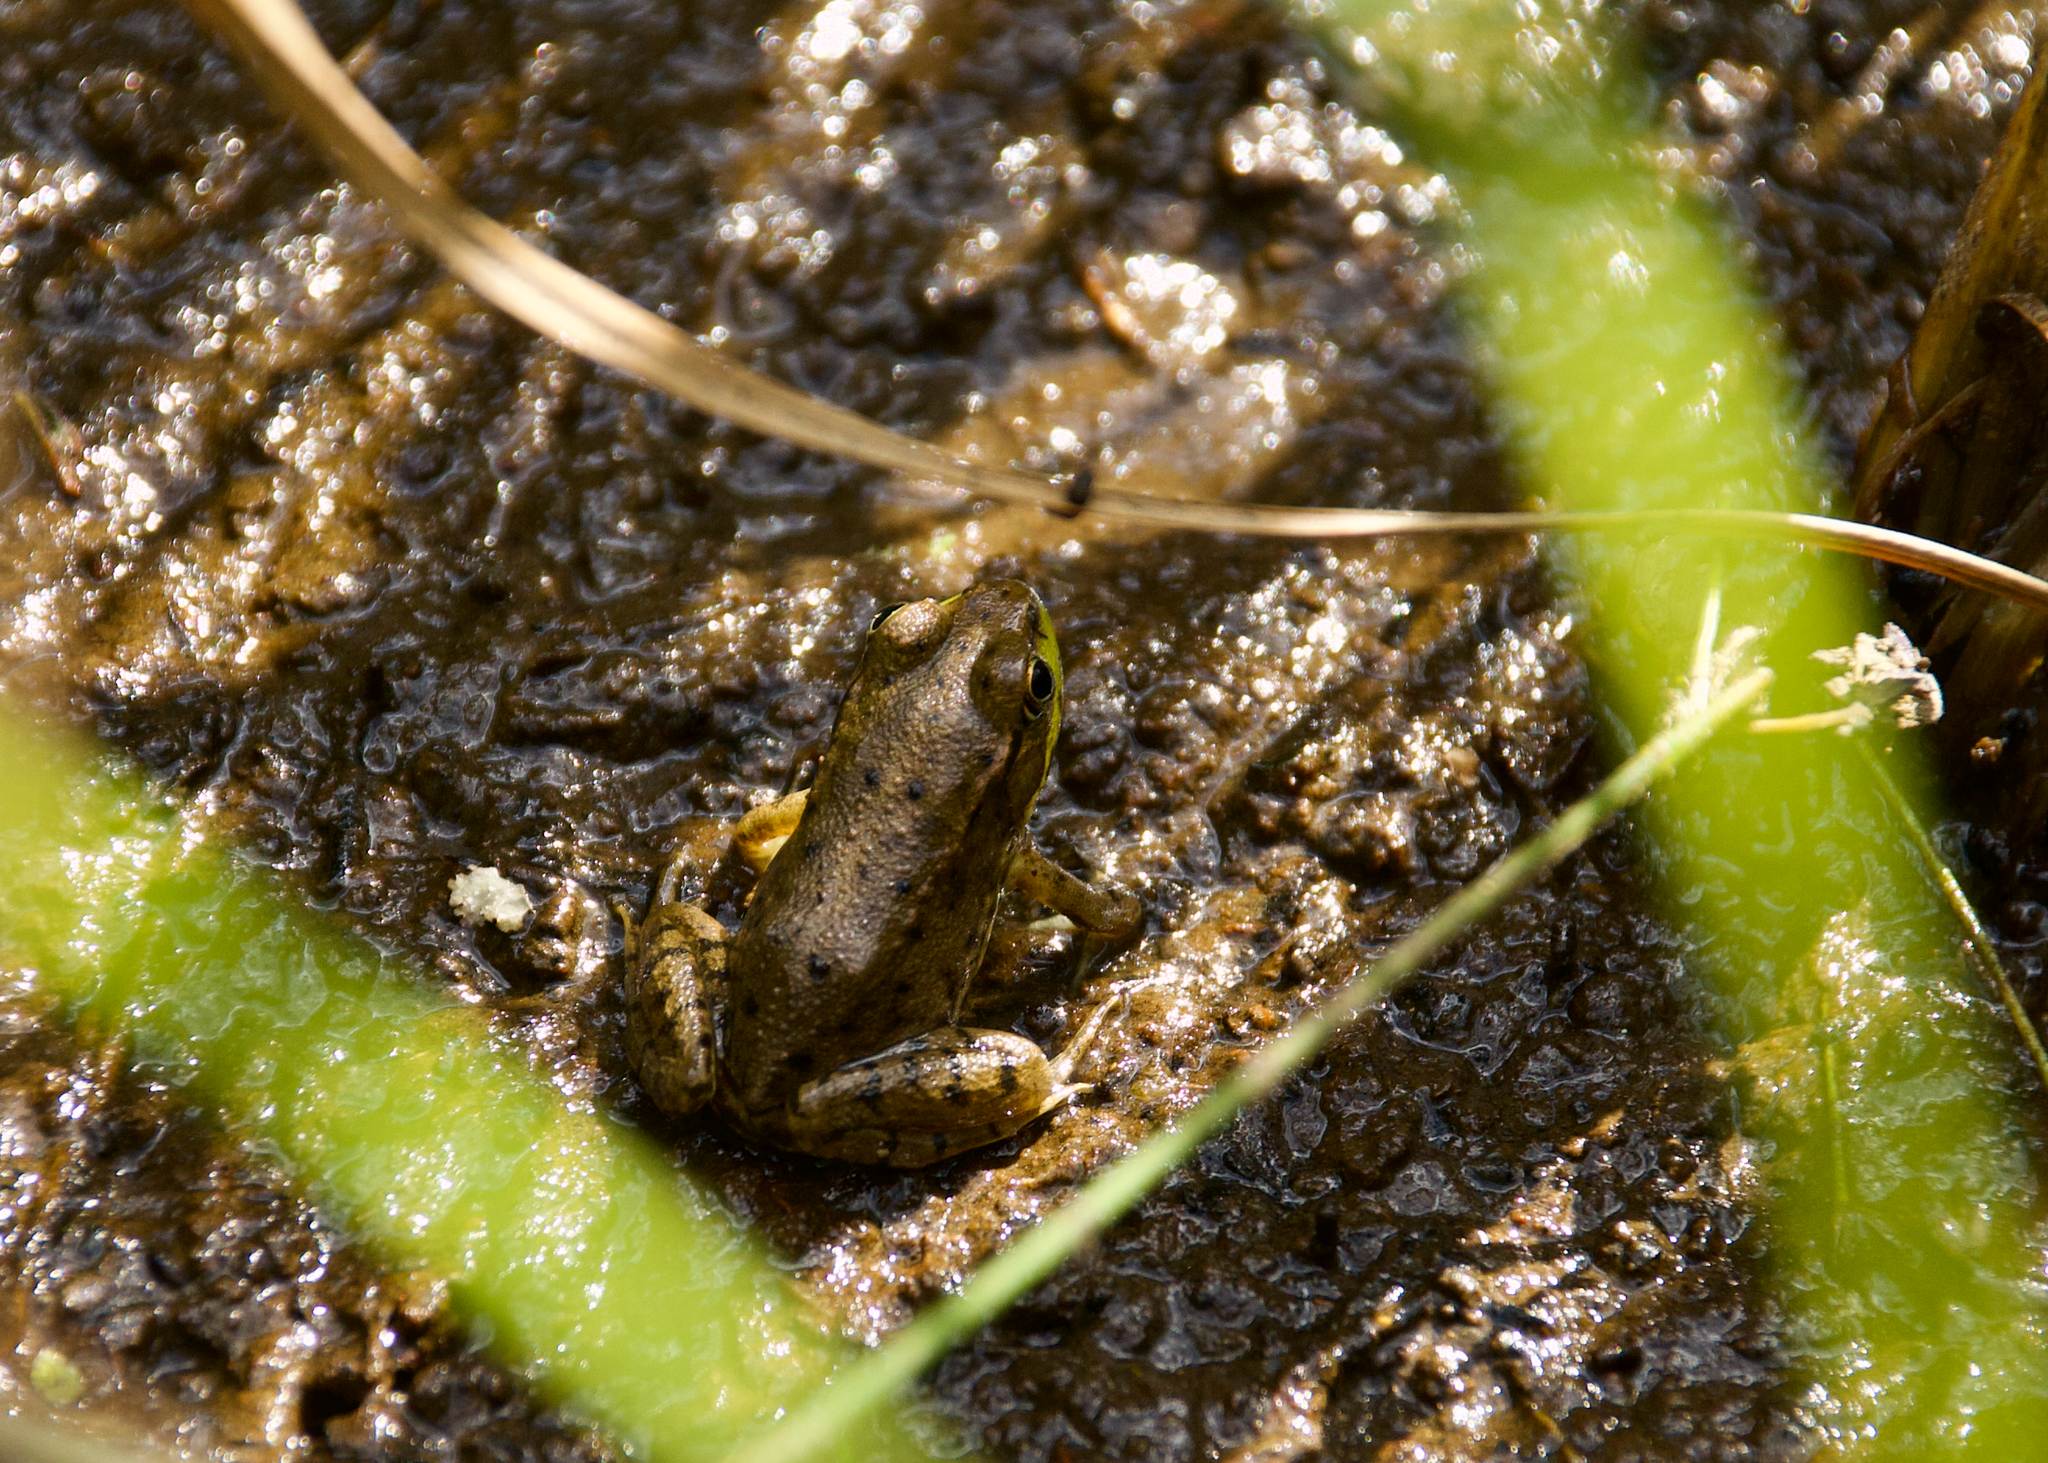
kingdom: Animalia
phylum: Chordata
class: Amphibia
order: Anura
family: Ranidae
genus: Lithobates
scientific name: Lithobates clamitans
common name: Green frog
